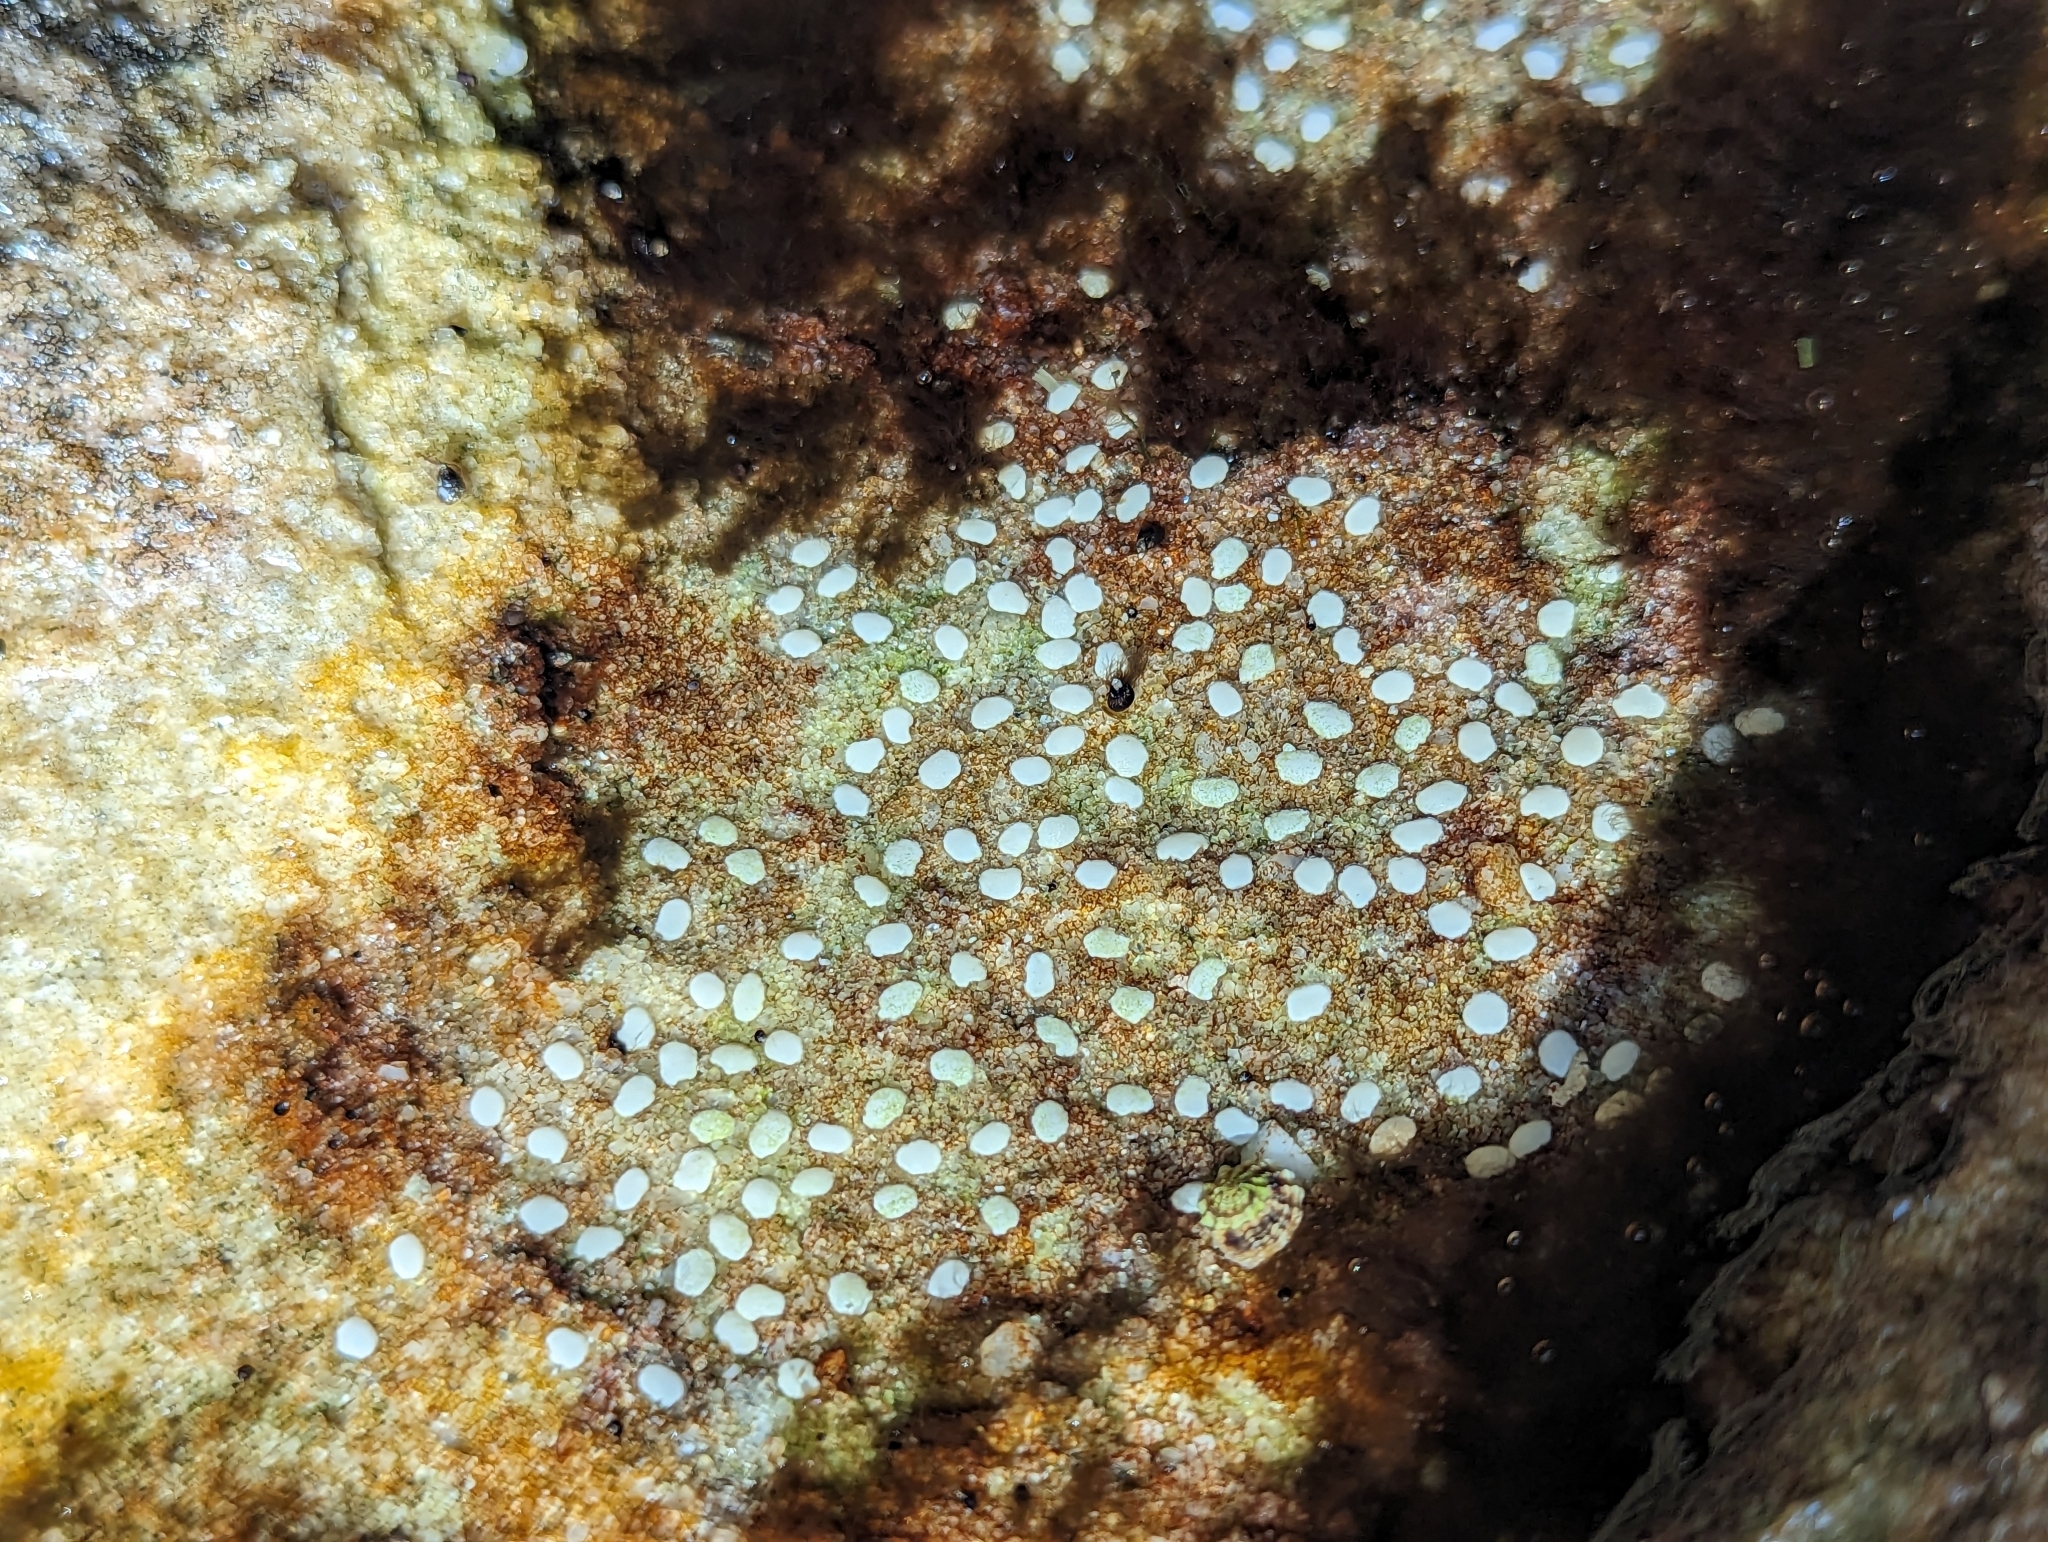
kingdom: Animalia
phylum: Mollusca
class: Gastropoda
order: Cycloneritida
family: Neritidae
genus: Nerita
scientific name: Nerita melanotragus
